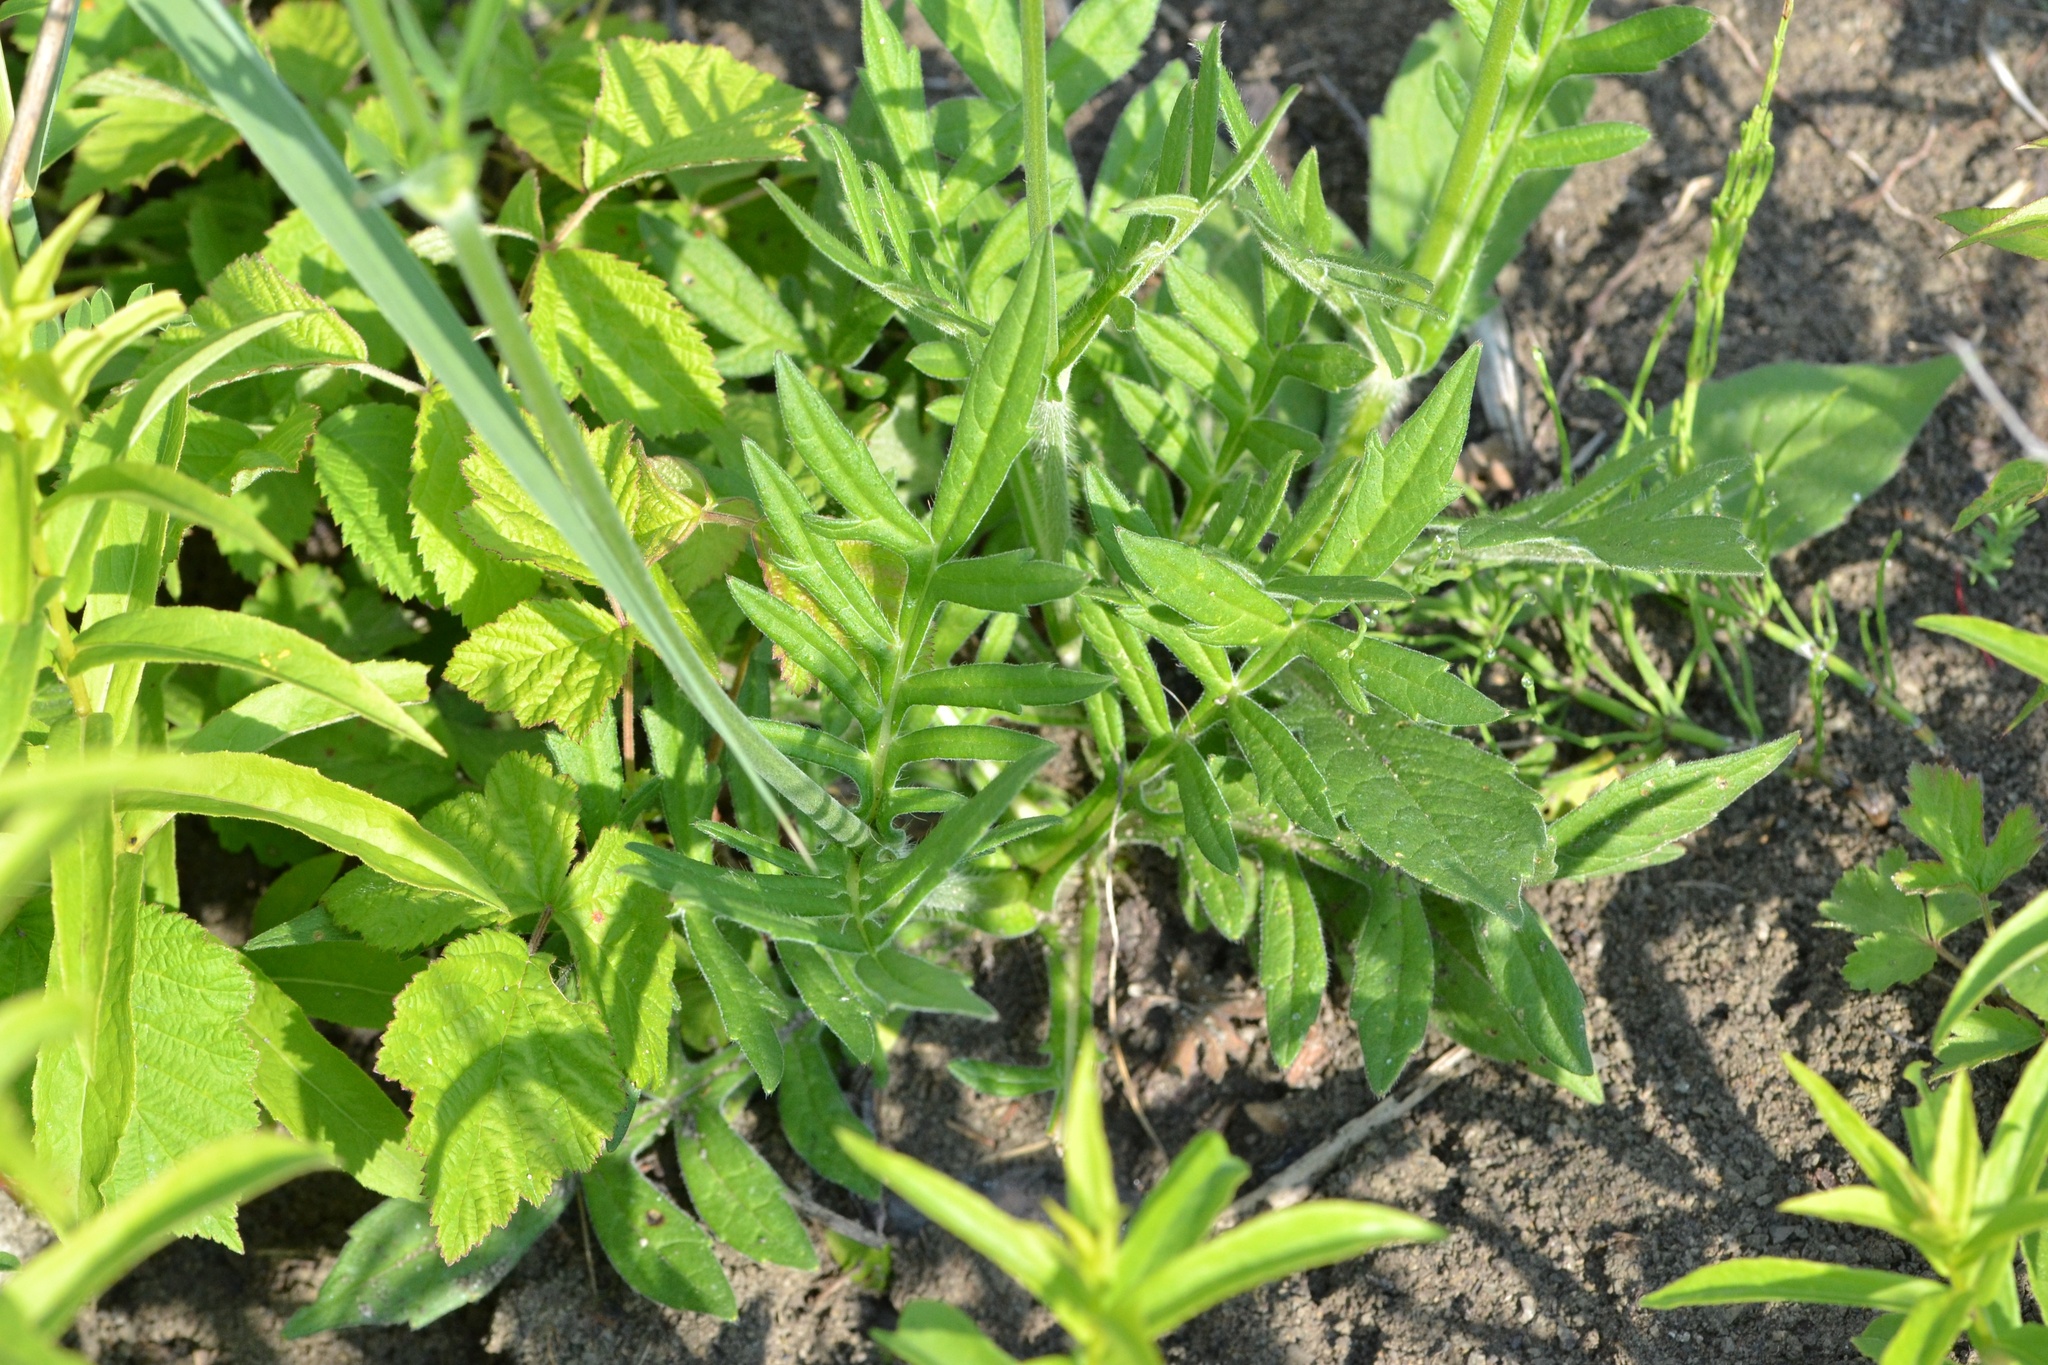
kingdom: Plantae
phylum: Tracheophyta
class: Magnoliopsida
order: Dipsacales
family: Caprifoliaceae
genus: Knautia
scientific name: Knautia arvensis
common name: Field scabiosa
